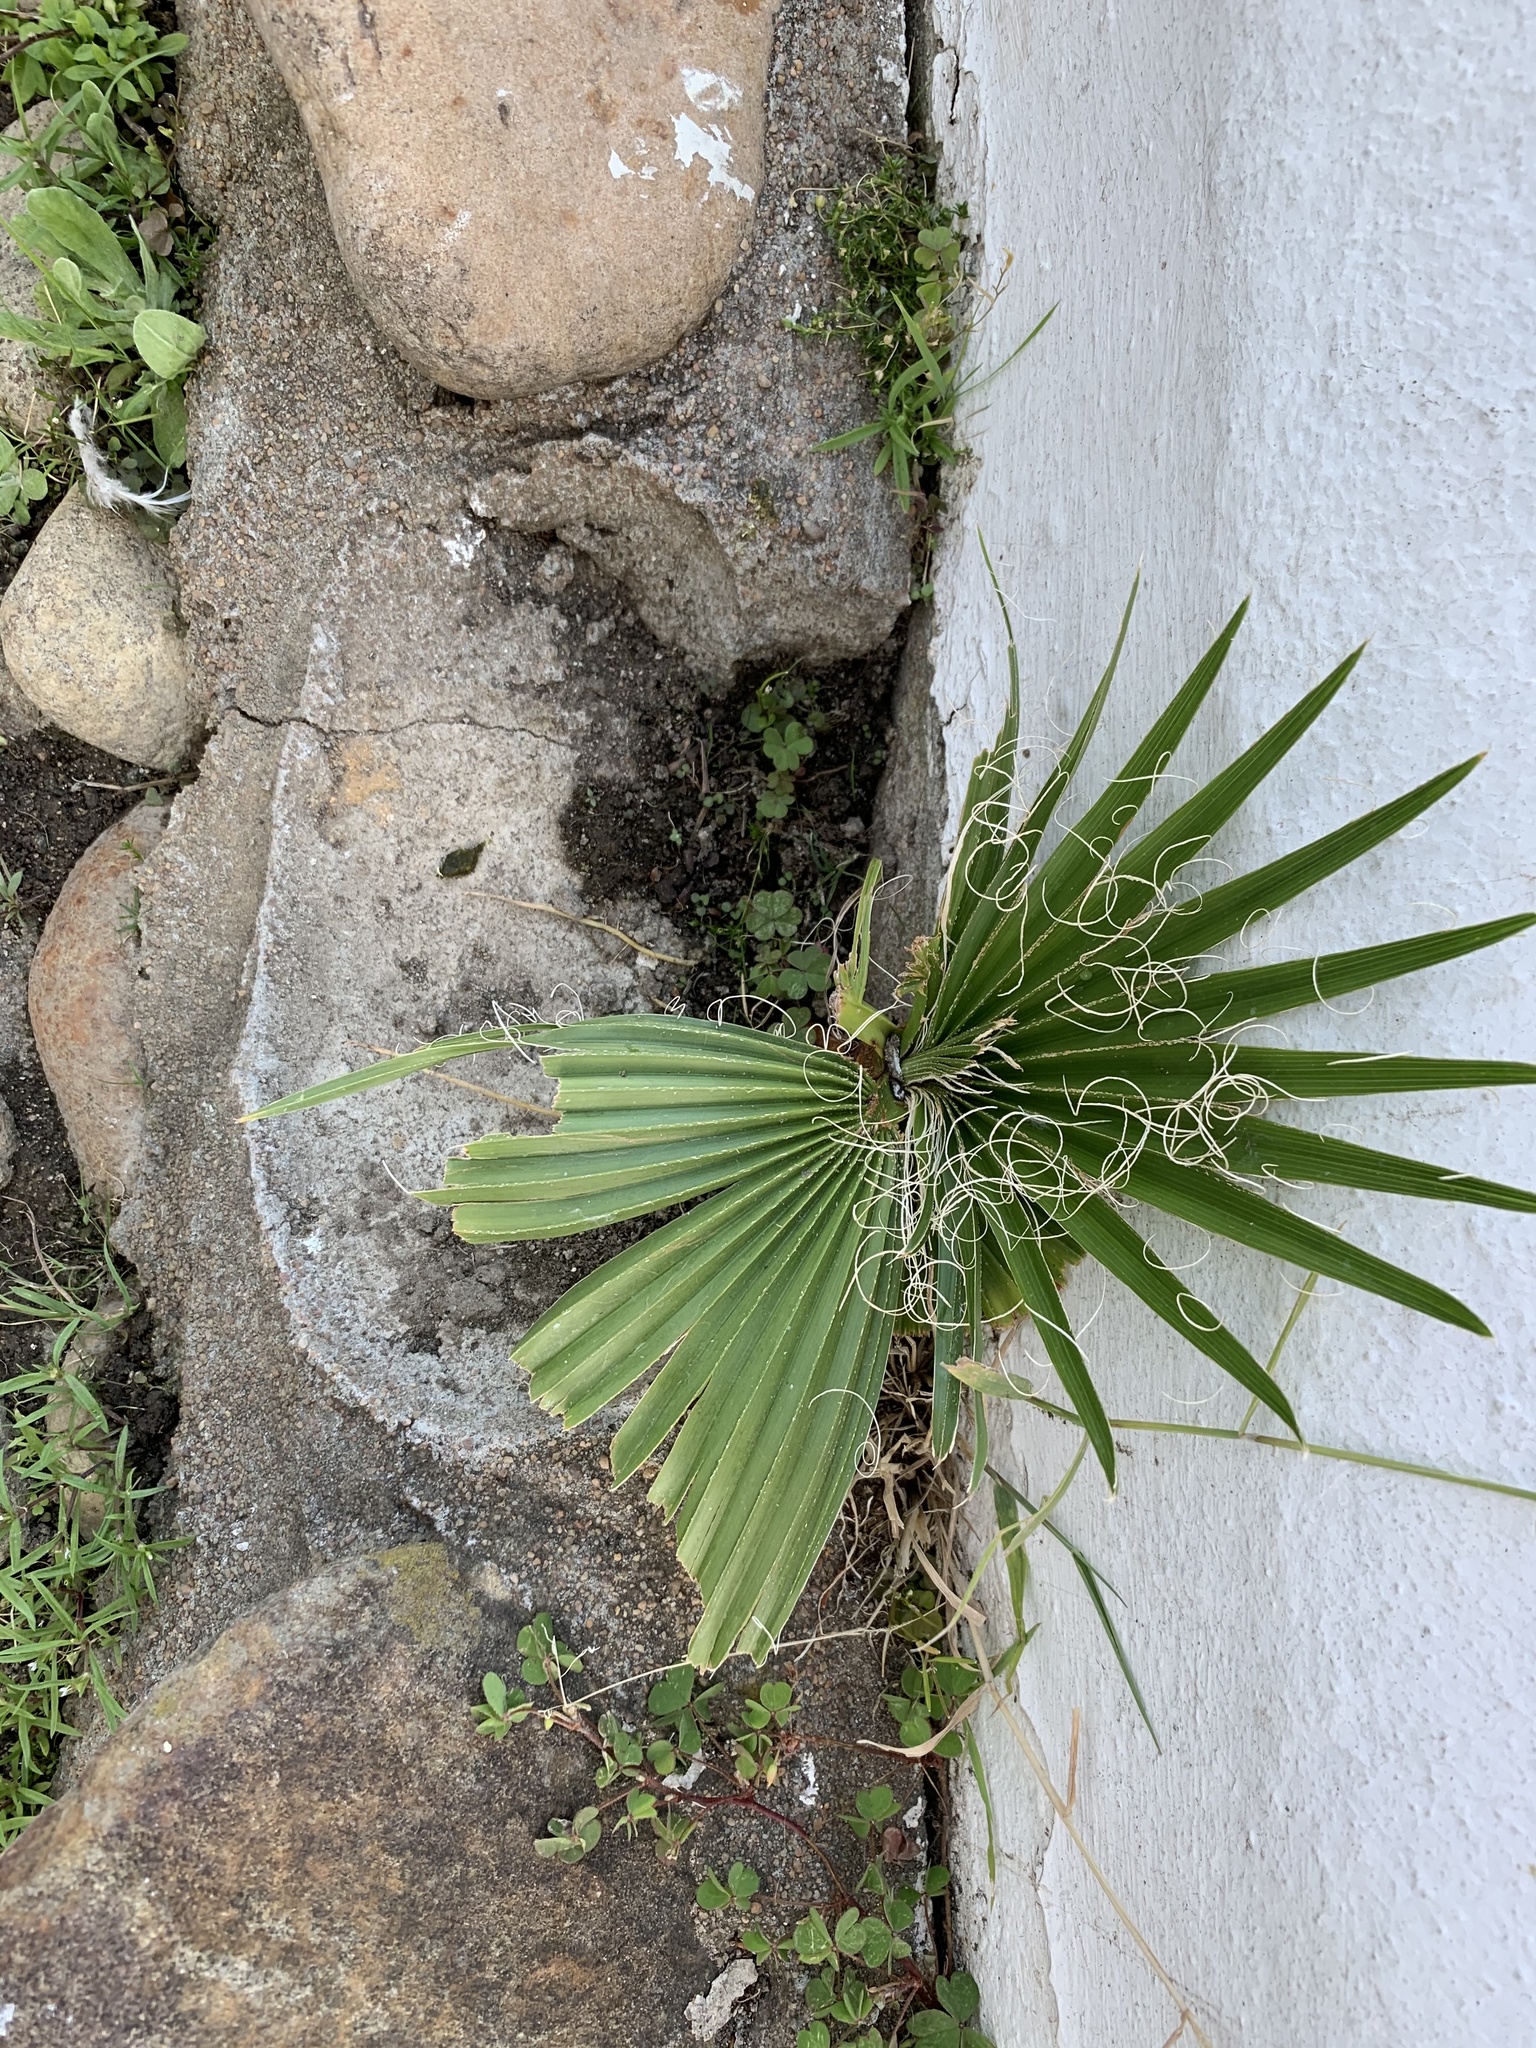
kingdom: Plantae
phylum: Tracheophyta
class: Liliopsida
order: Arecales
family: Arecaceae
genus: Washingtonia
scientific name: Washingtonia robusta
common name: Mexican fan palm
